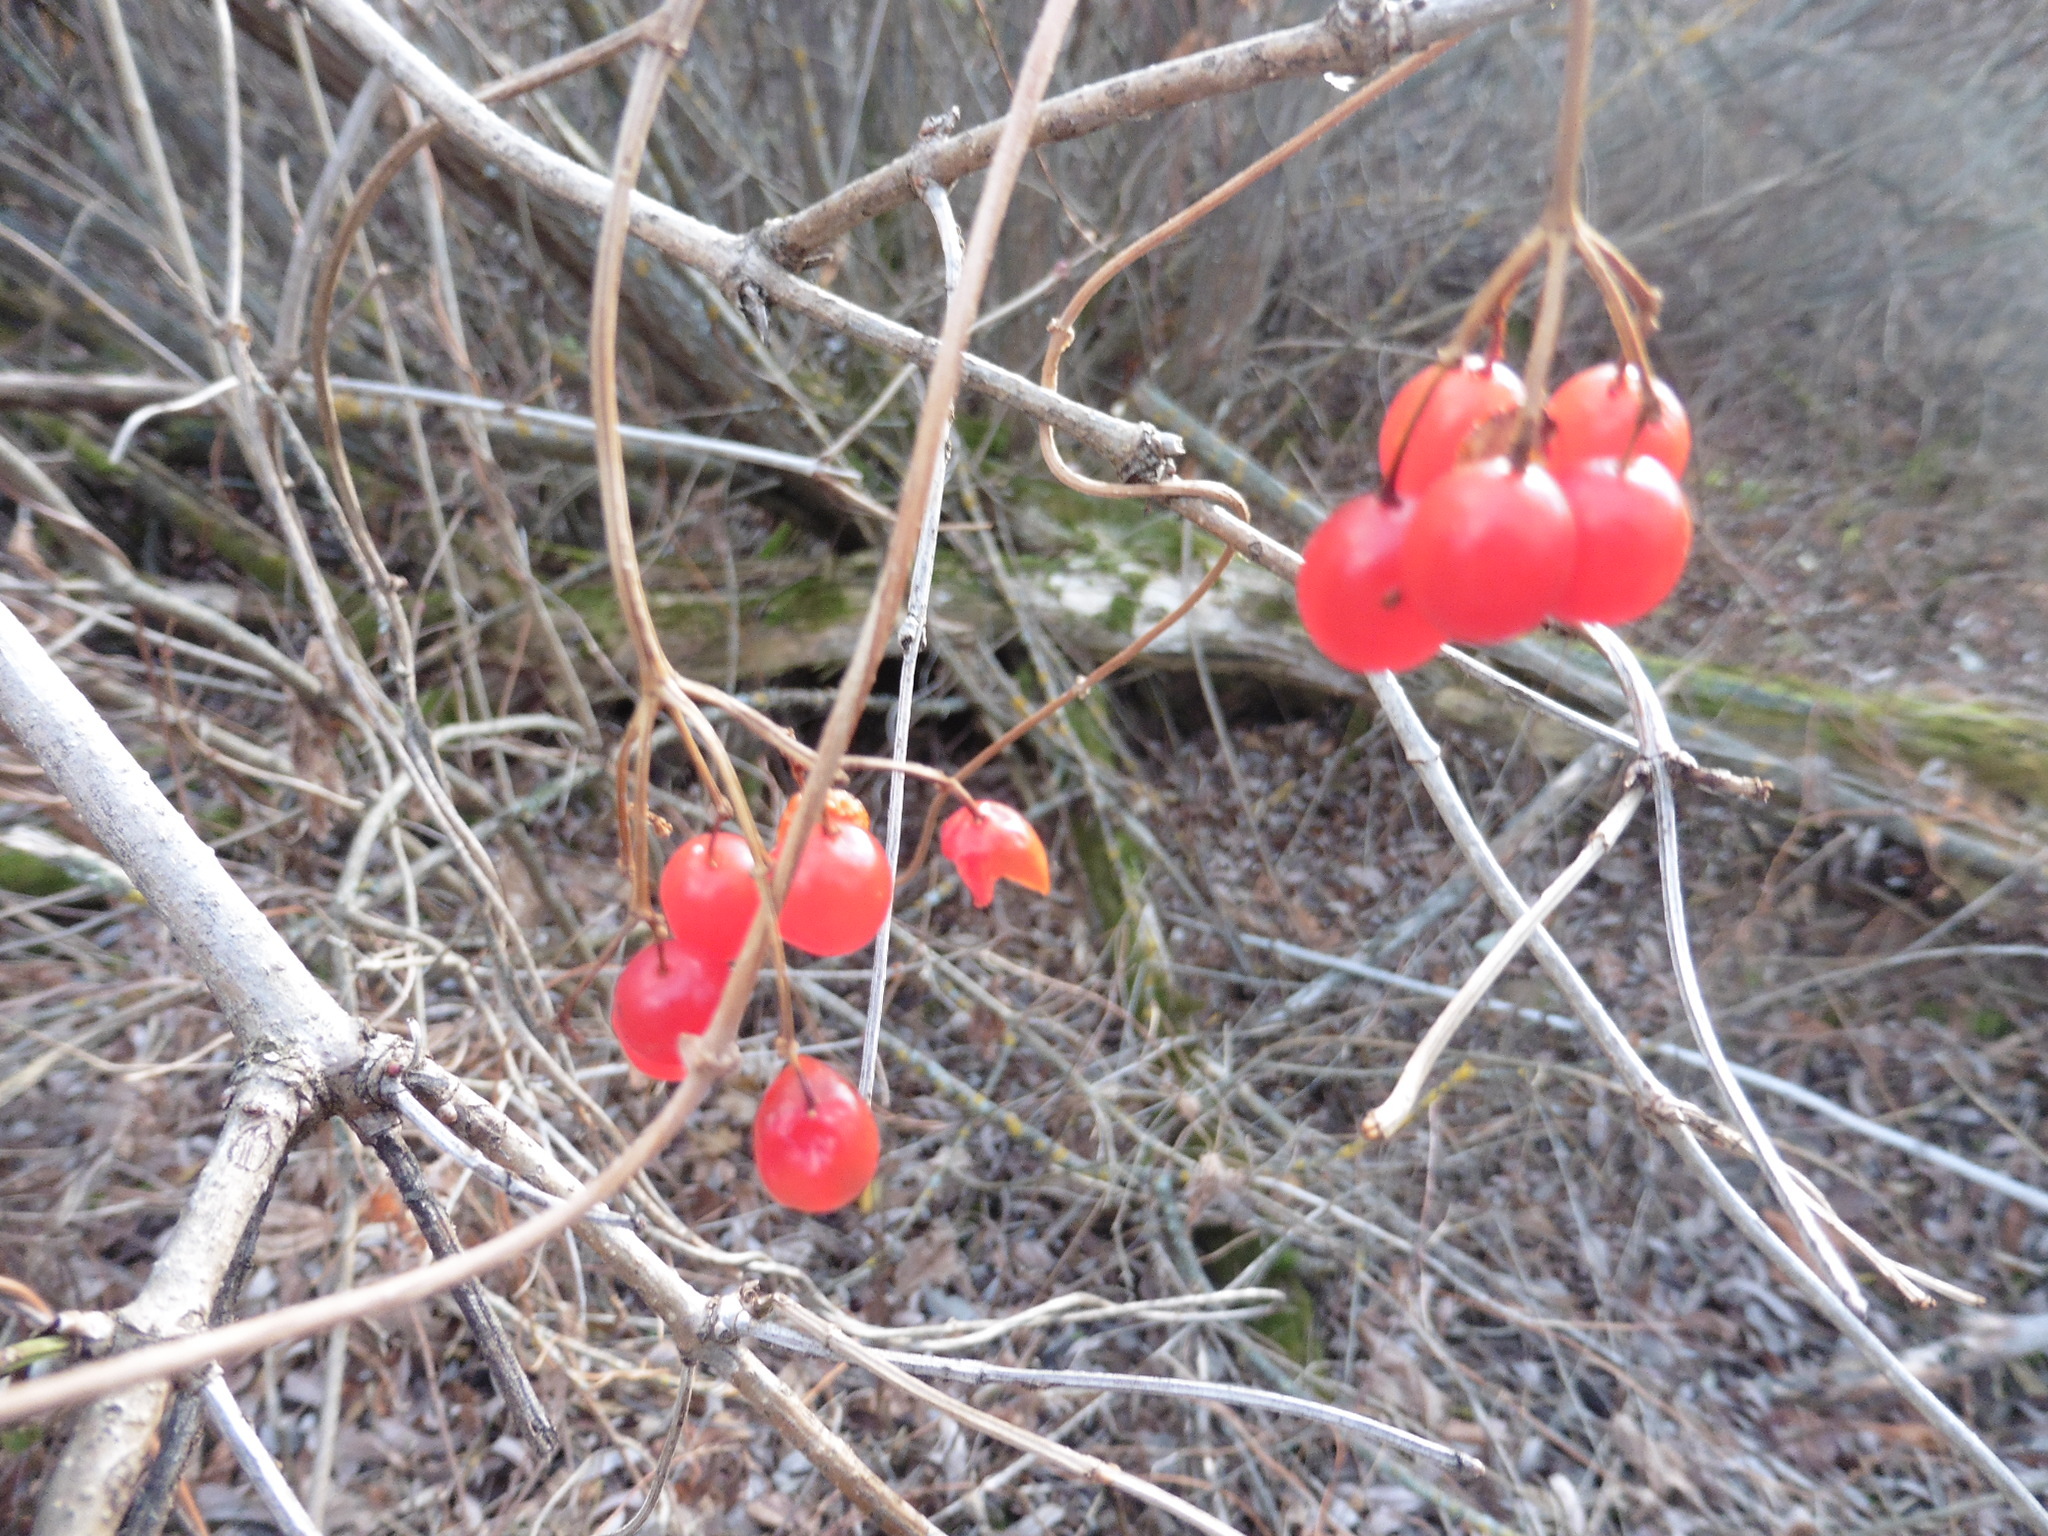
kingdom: Plantae
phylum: Tracheophyta
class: Magnoliopsida
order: Dipsacales
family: Viburnaceae
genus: Viburnum
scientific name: Viburnum opulus
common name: Guelder-rose
